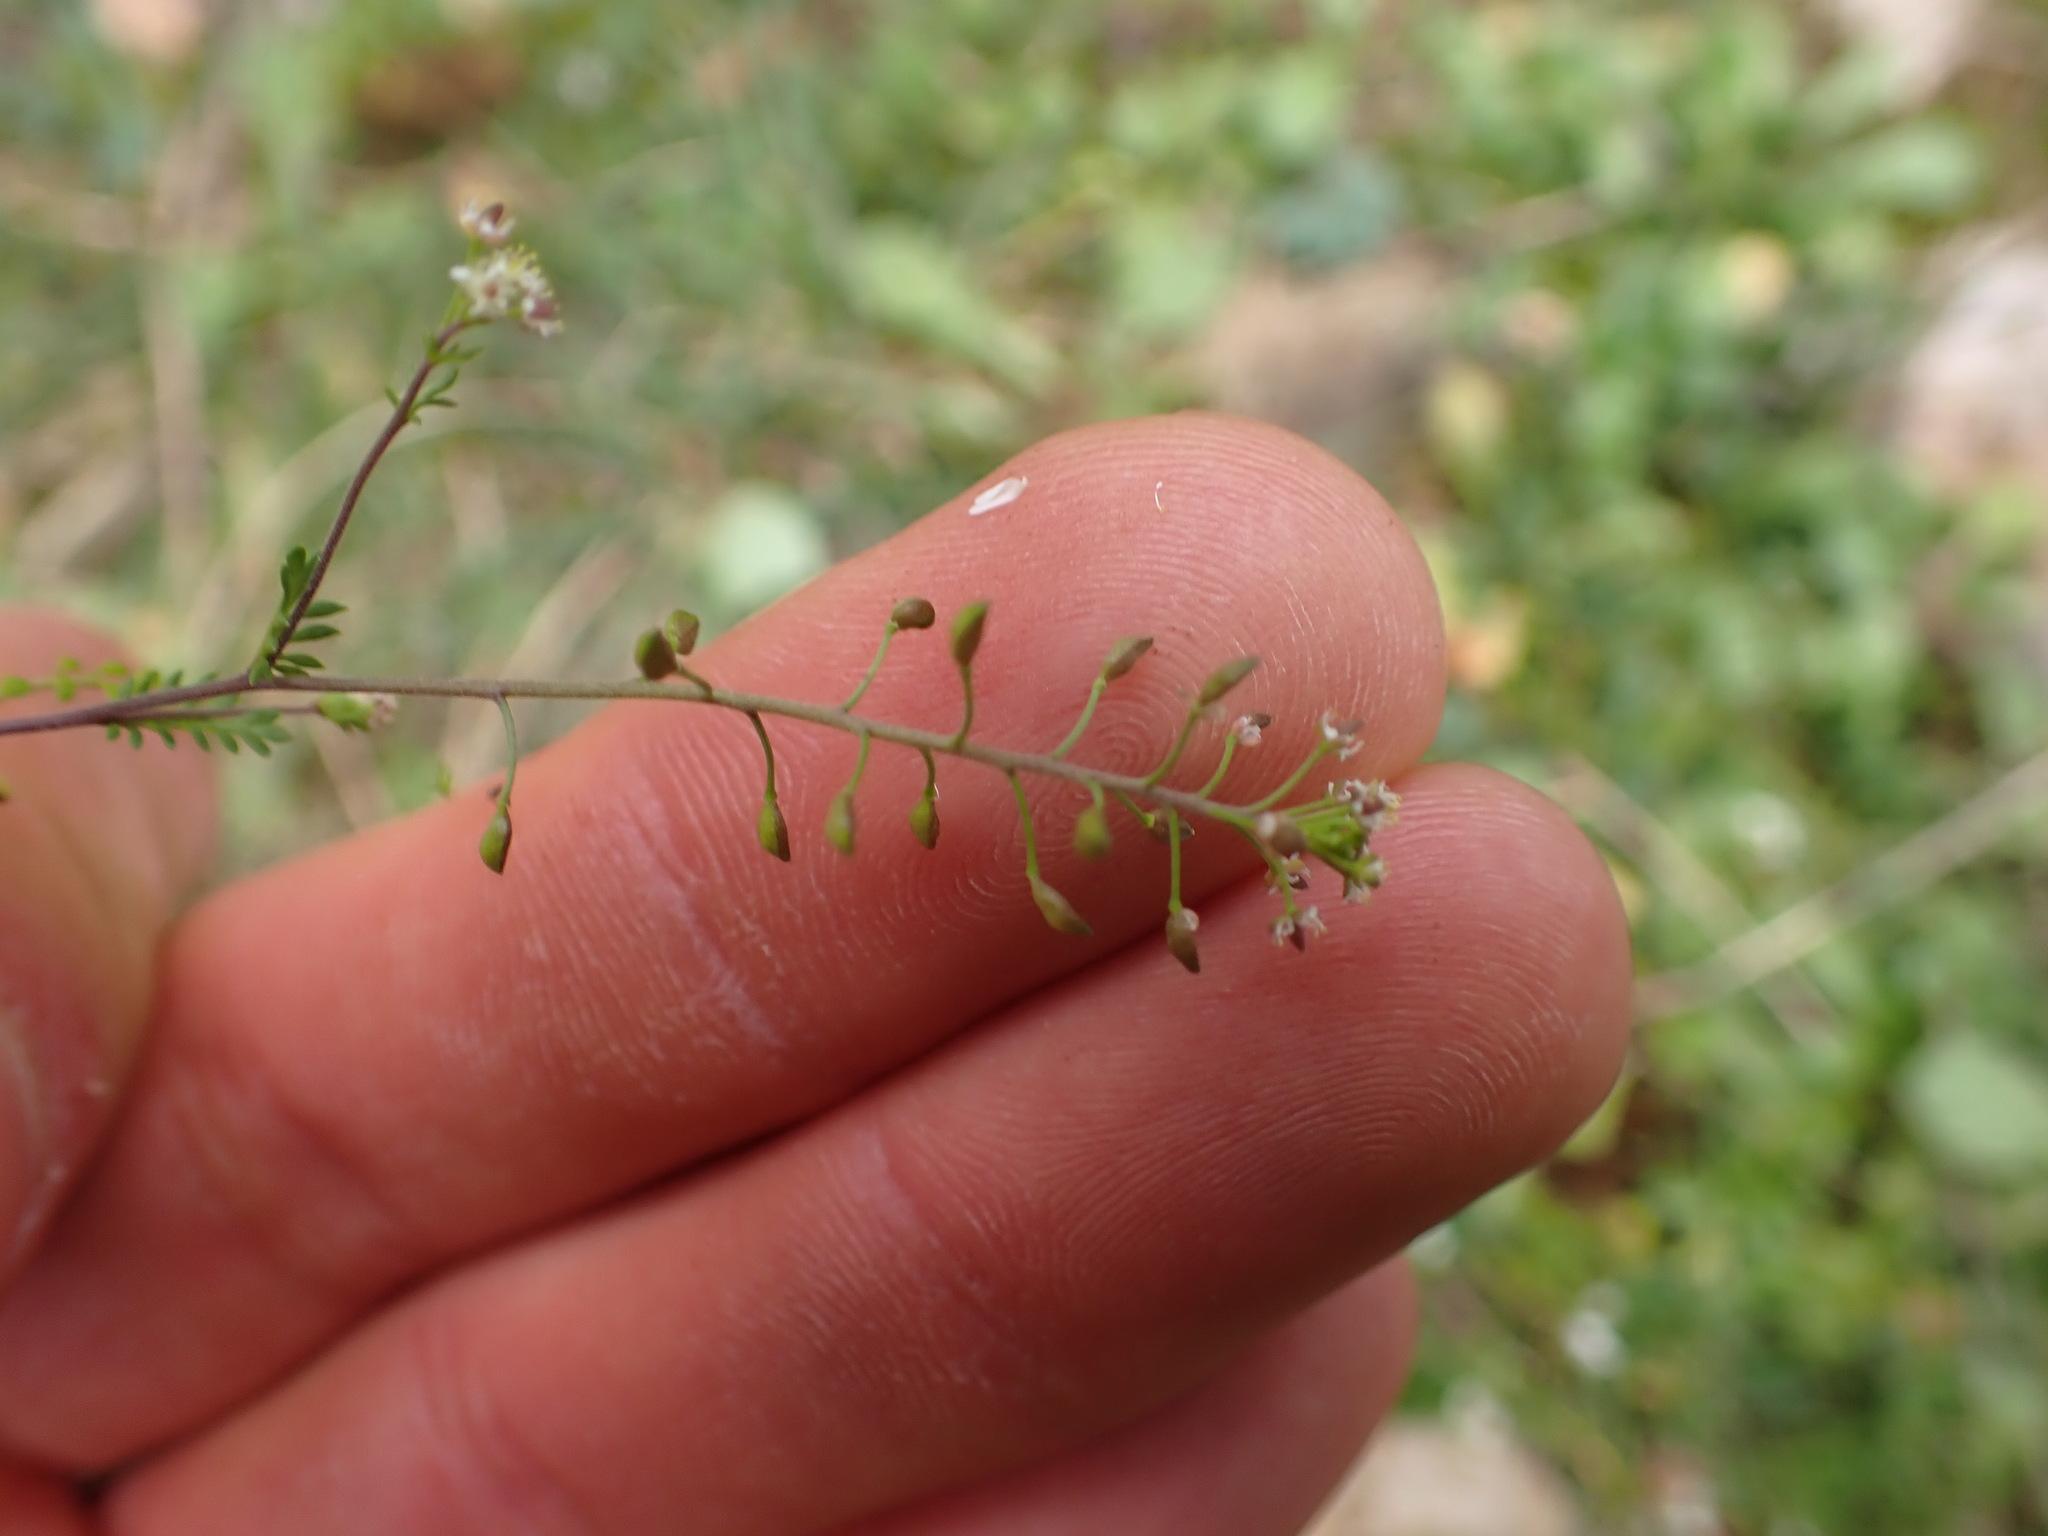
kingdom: Plantae
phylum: Tracheophyta
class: Magnoliopsida
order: Brassicales
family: Brassicaceae
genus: Hornungia
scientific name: Hornungia petraea
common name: Hutchinsia
